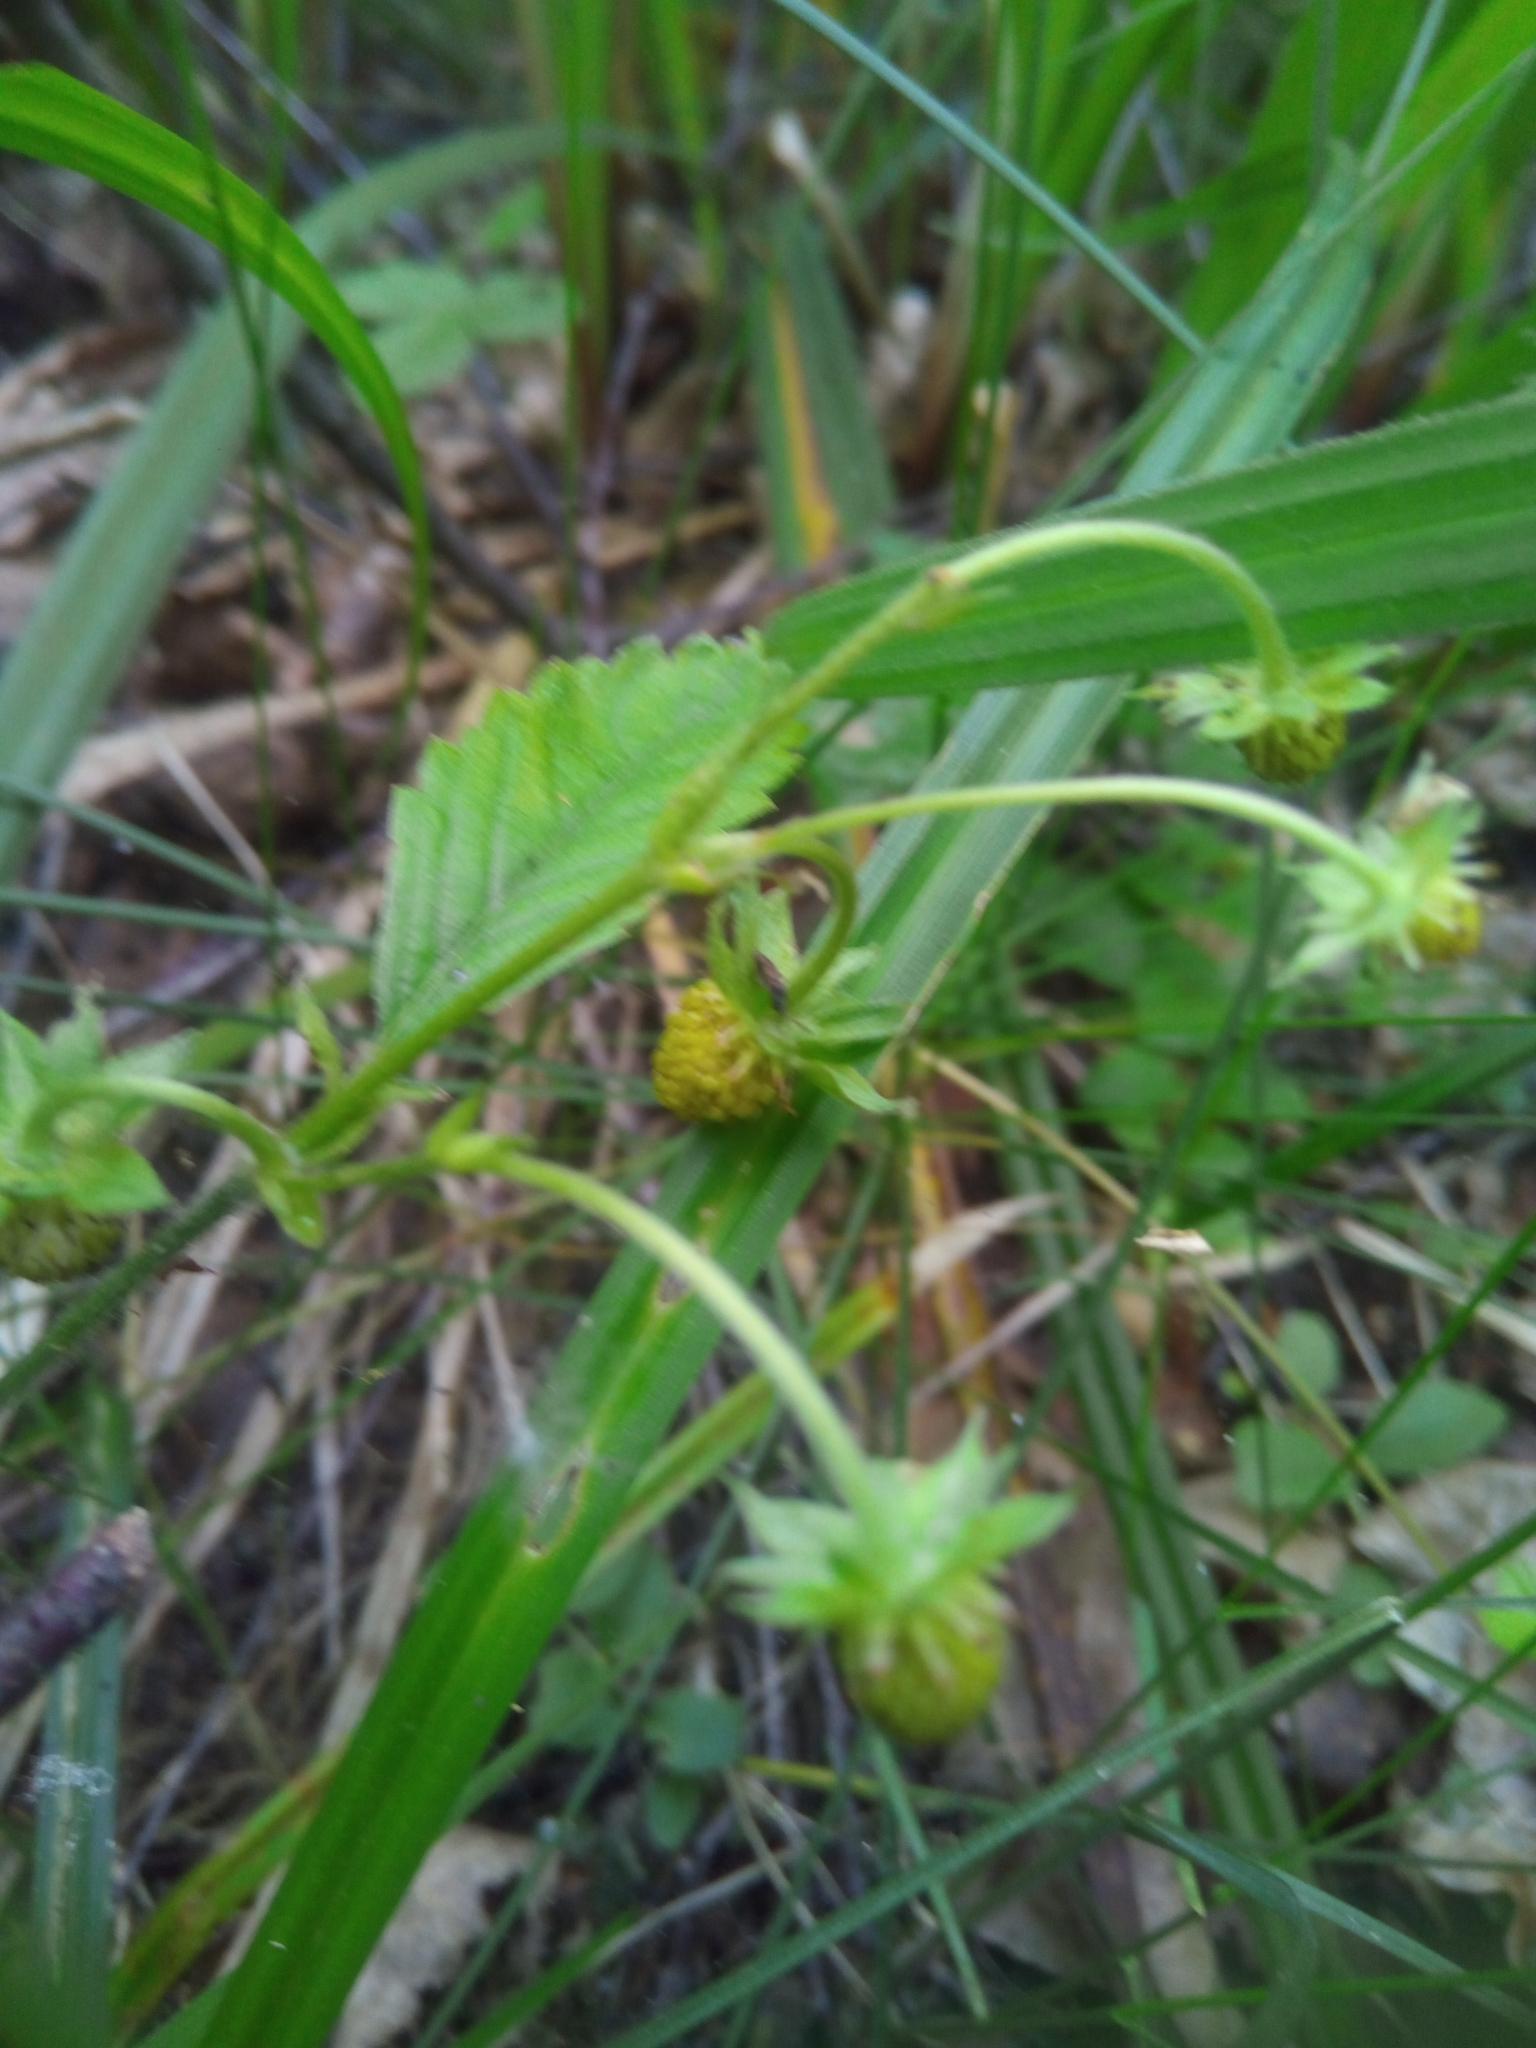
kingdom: Plantae
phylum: Tracheophyta
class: Magnoliopsida
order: Rosales
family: Rosaceae
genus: Fragaria
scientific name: Fragaria vesca
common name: Wild strawberry
